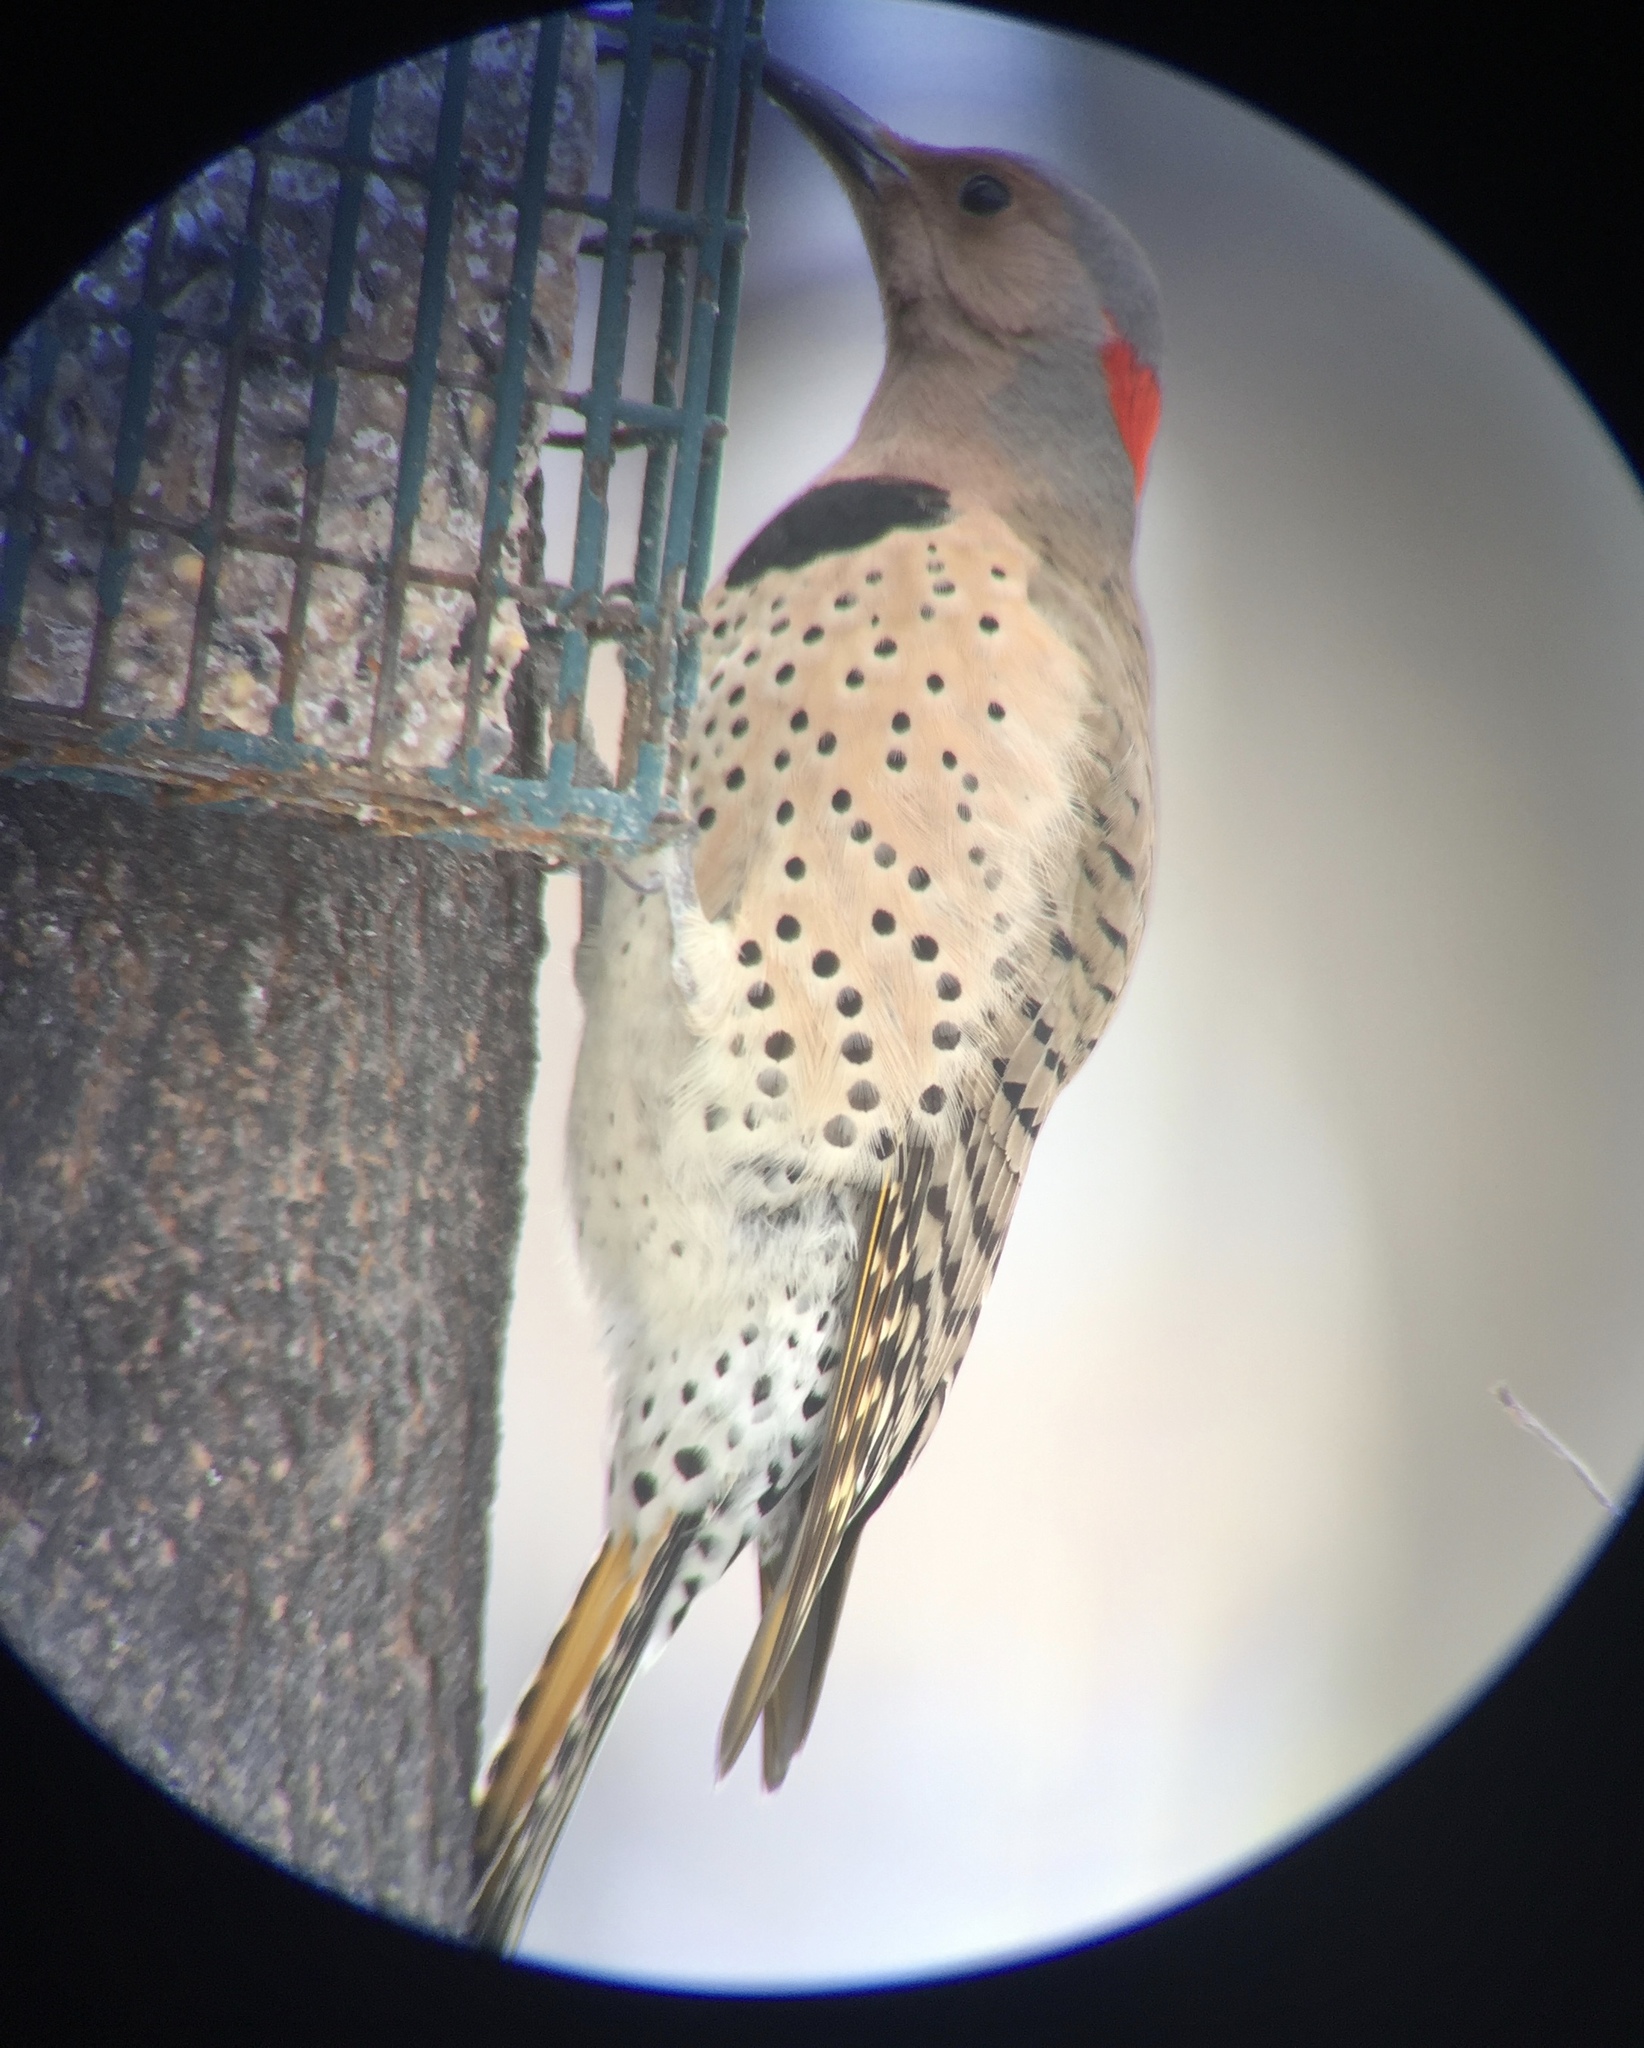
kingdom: Animalia
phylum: Chordata
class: Aves
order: Piciformes
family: Picidae
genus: Colaptes
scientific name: Colaptes auratus
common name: Northern flicker
